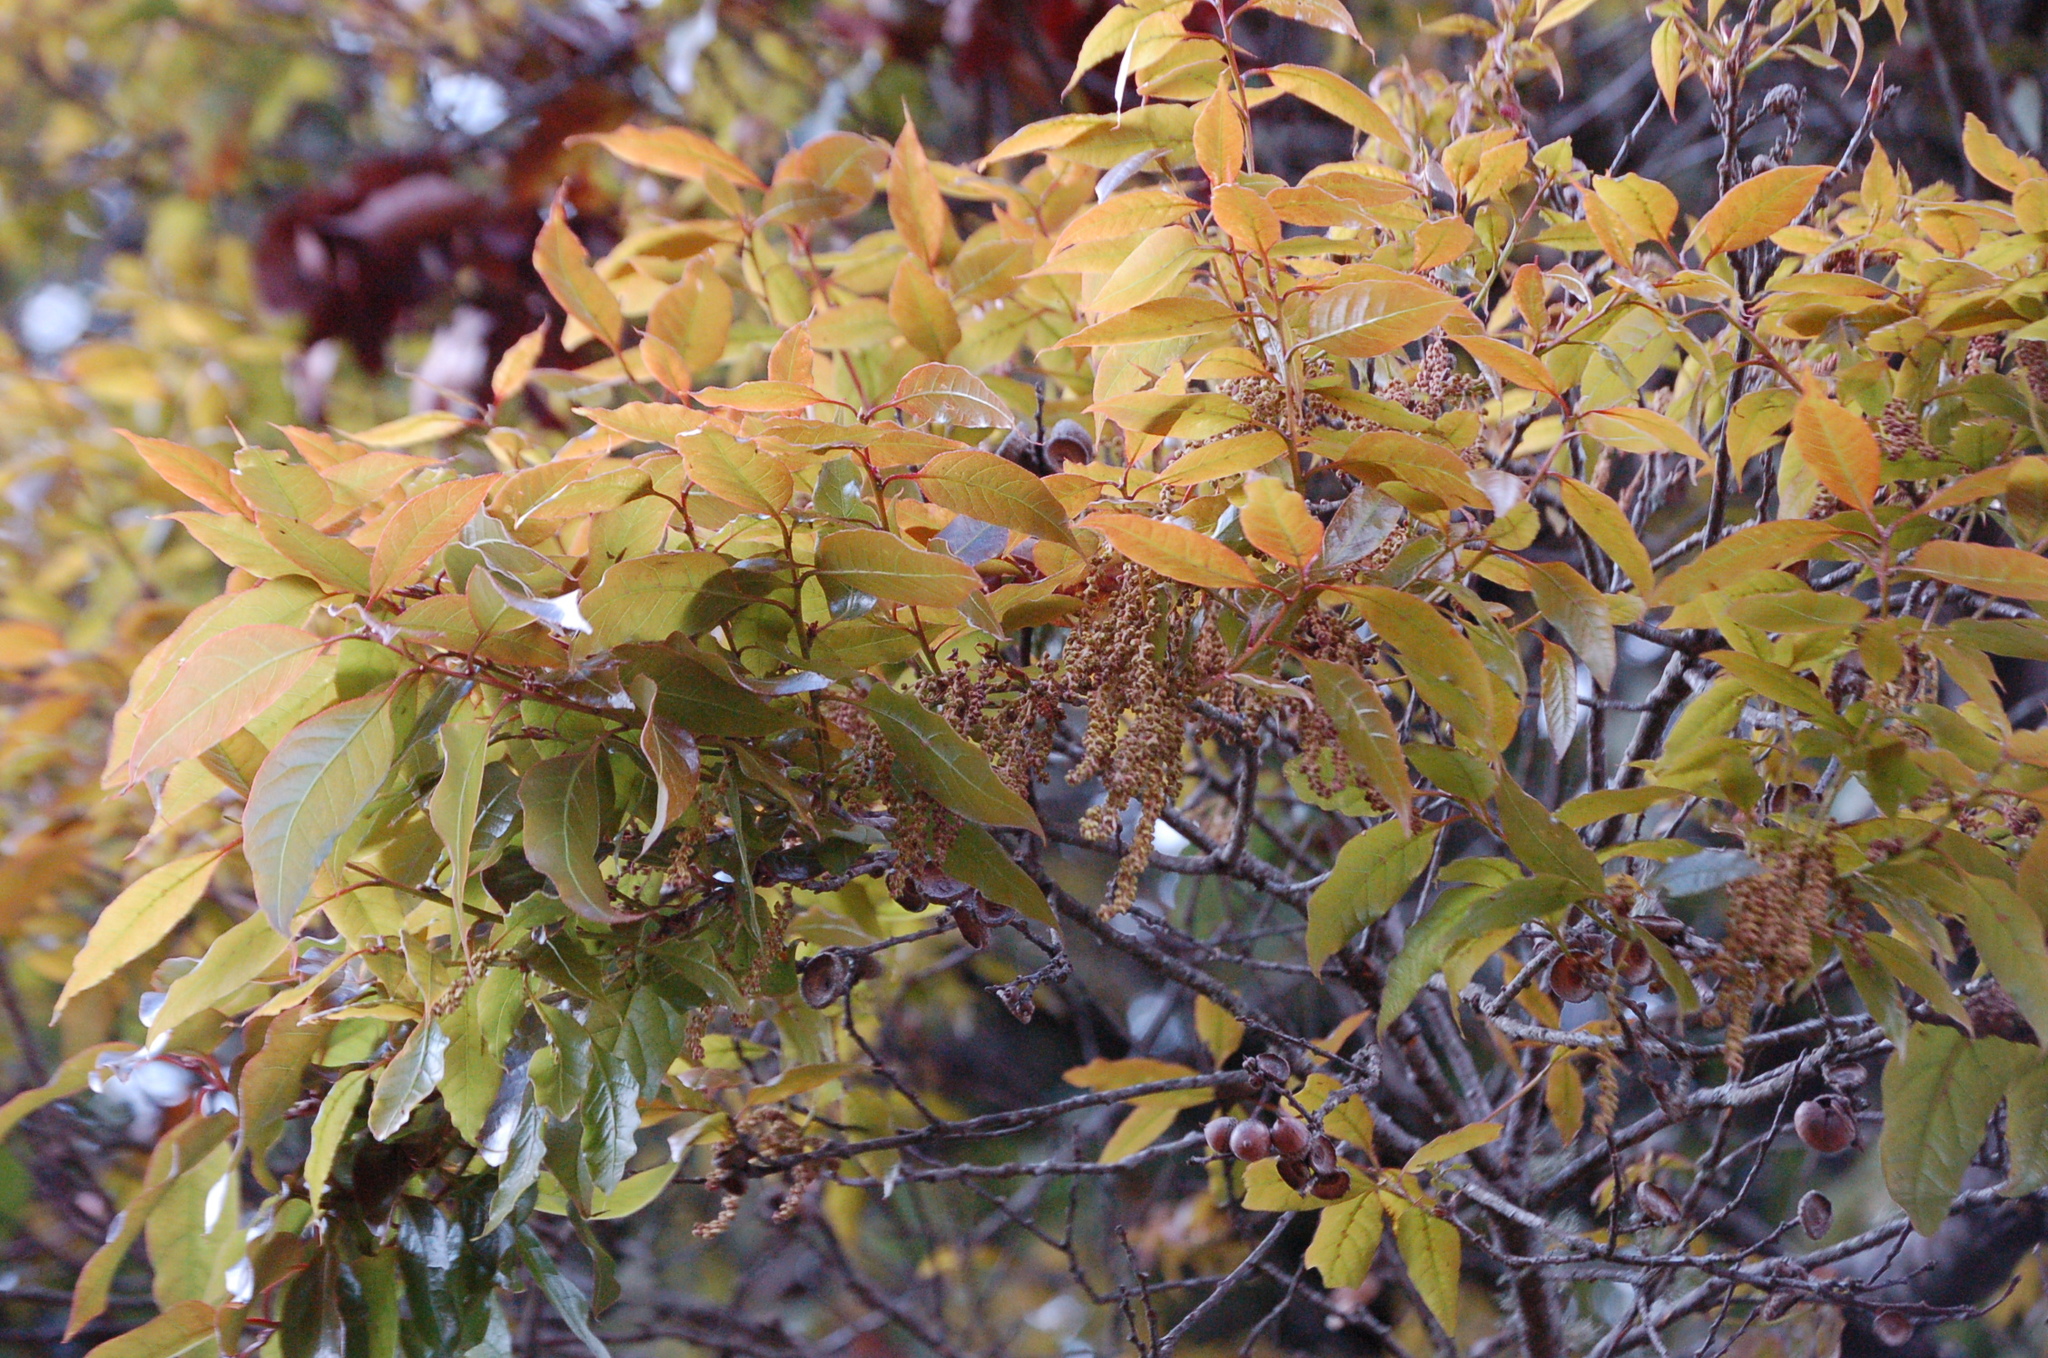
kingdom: Plantae
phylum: Tracheophyta
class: Magnoliopsida
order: Fagales
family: Fagaceae
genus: Quercus
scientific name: Quercus laurina
